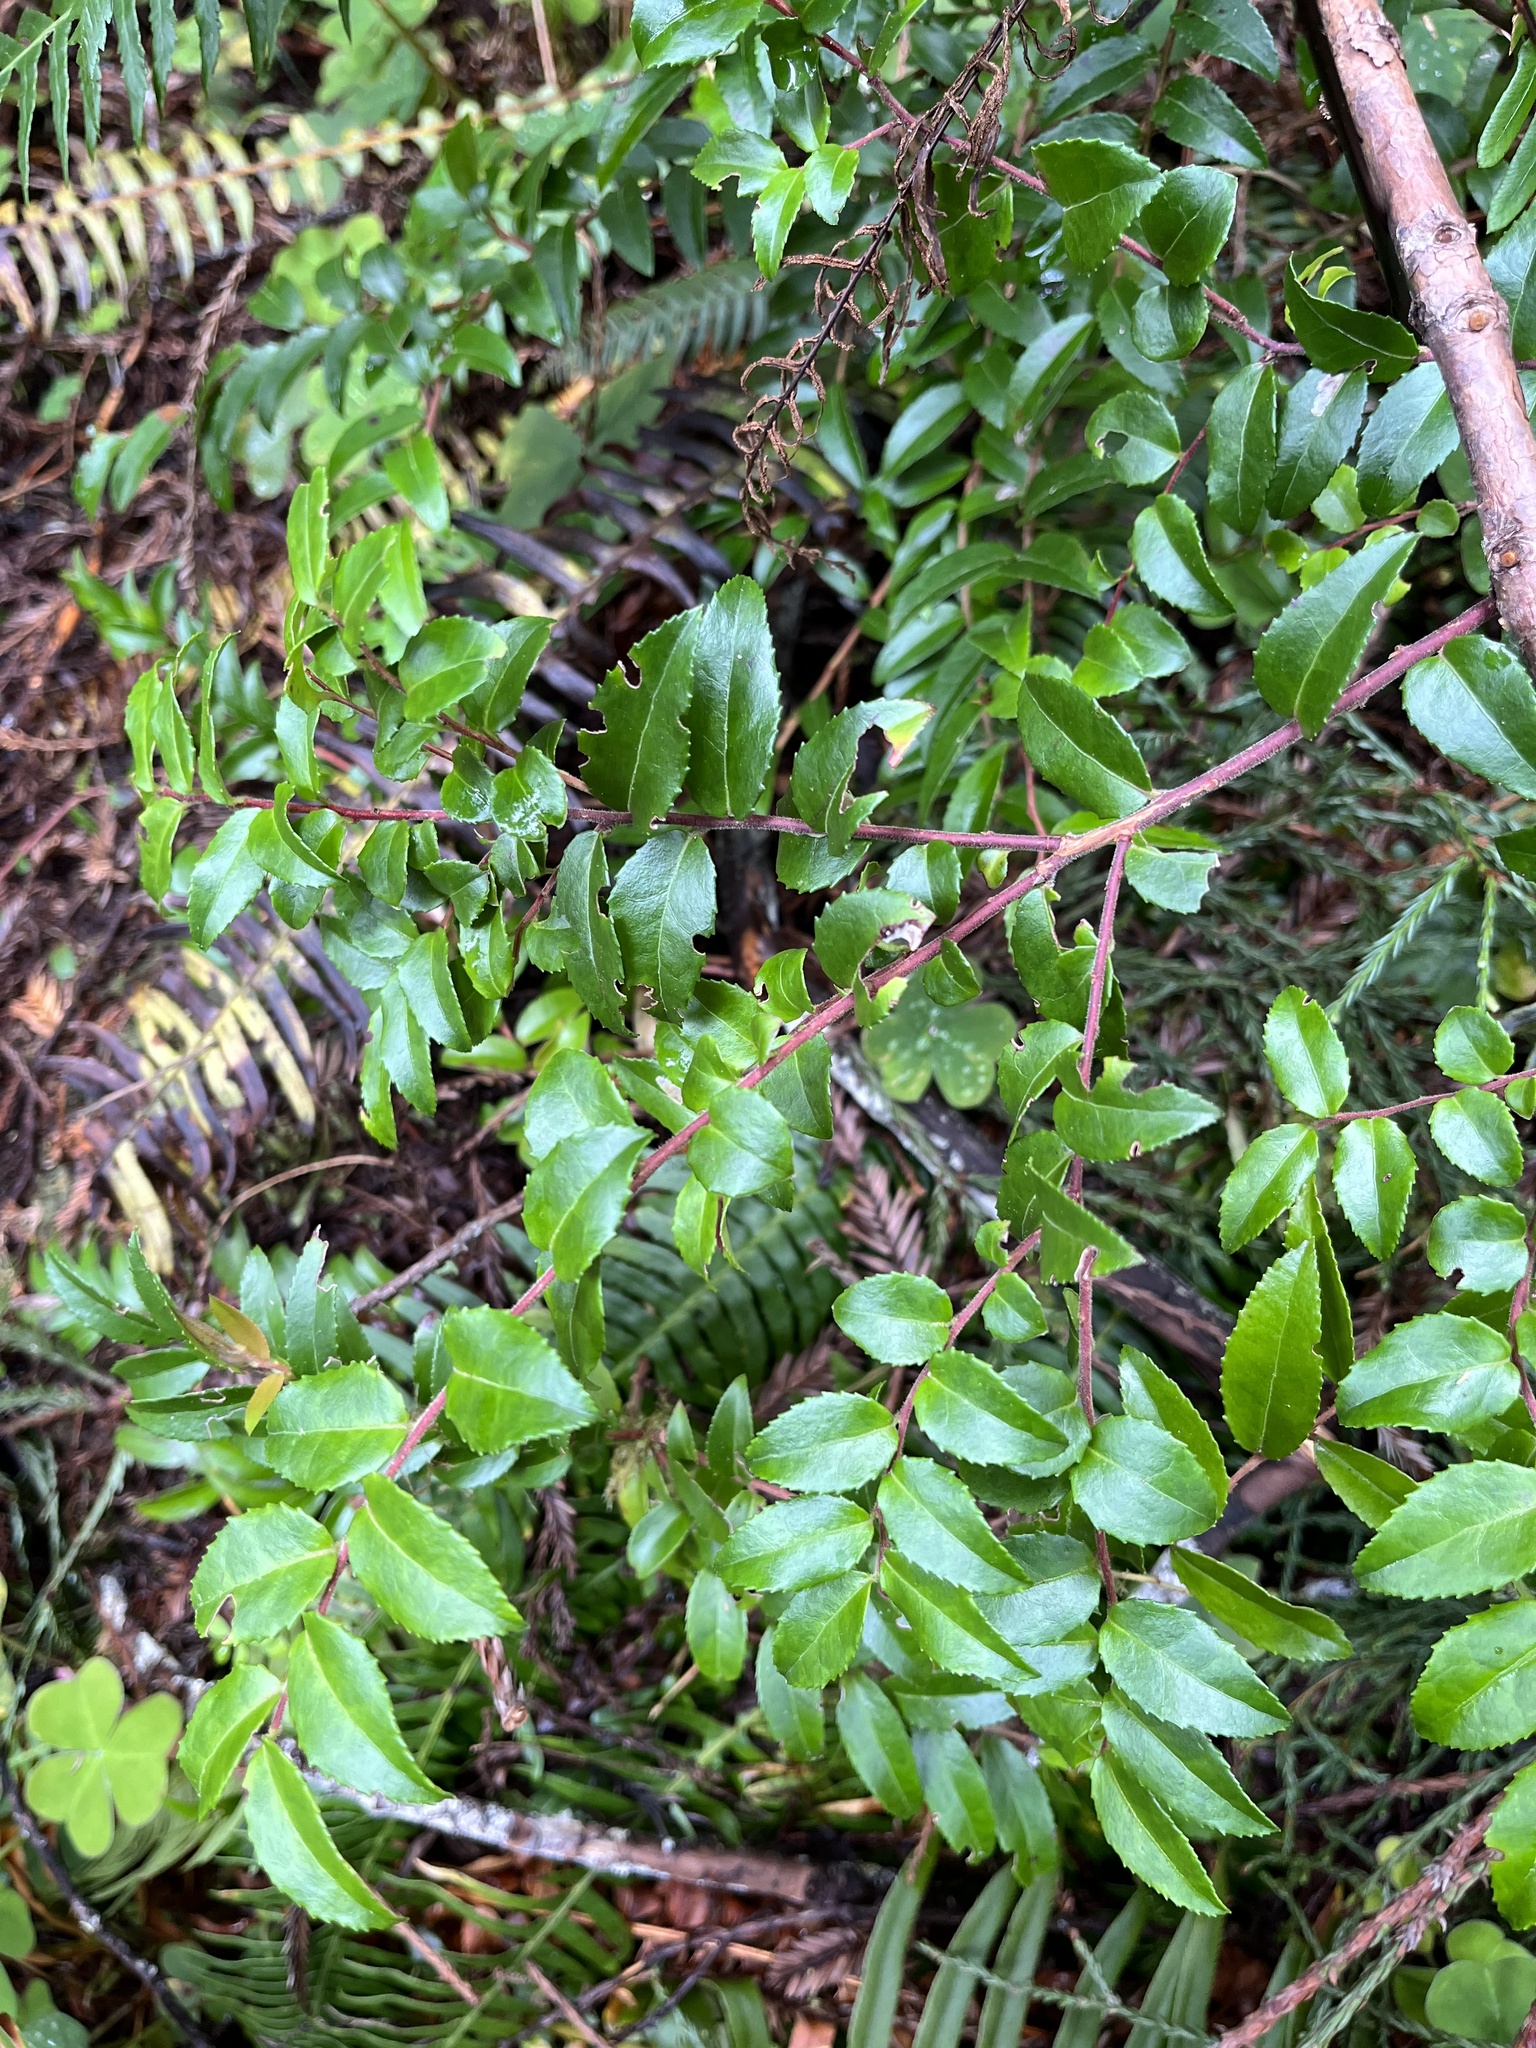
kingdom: Plantae
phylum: Tracheophyta
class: Magnoliopsida
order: Ericales
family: Ericaceae
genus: Vaccinium
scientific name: Vaccinium ovatum
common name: California-huckleberry
